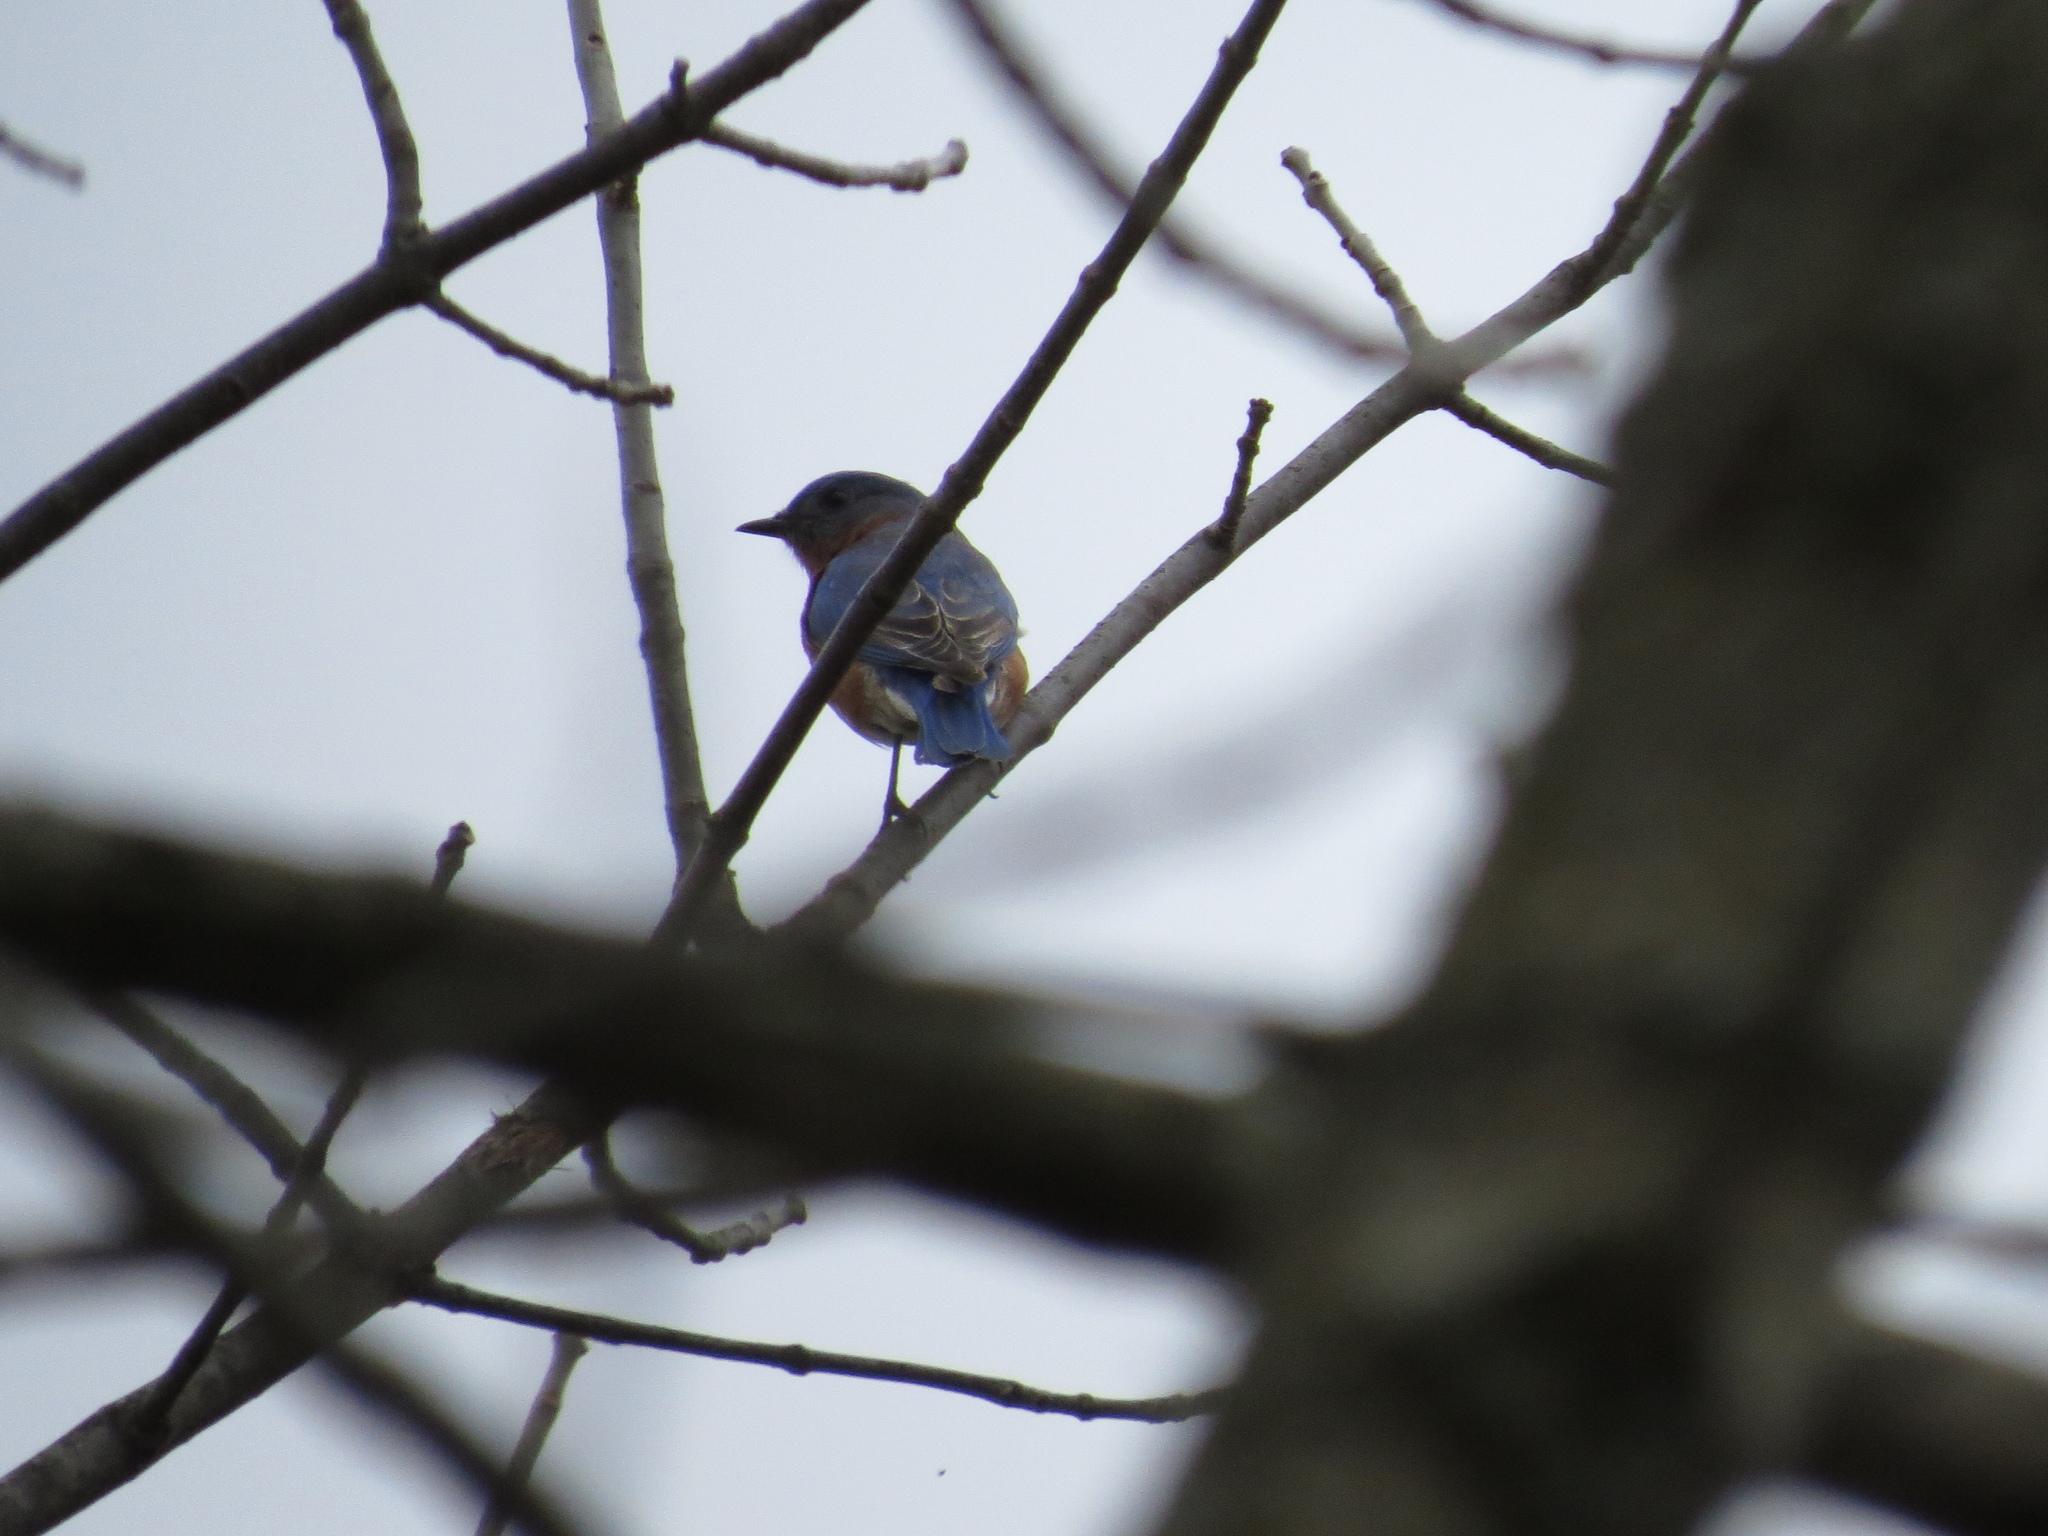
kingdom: Animalia
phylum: Chordata
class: Aves
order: Passeriformes
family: Turdidae
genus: Sialia
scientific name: Sialia sialis
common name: Eastern bluebird
